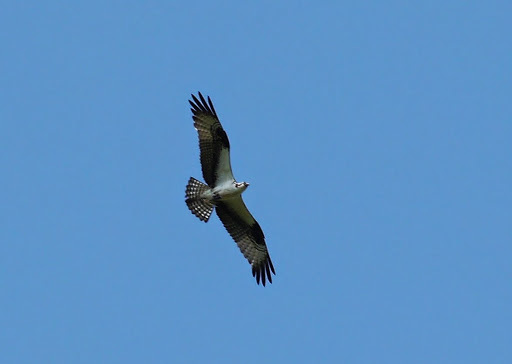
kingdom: Animalia
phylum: Chordata
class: Aves
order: Accipitriformes
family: Pandionidae
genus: Pandion
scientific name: Pandion haliaetus
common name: Osprey
